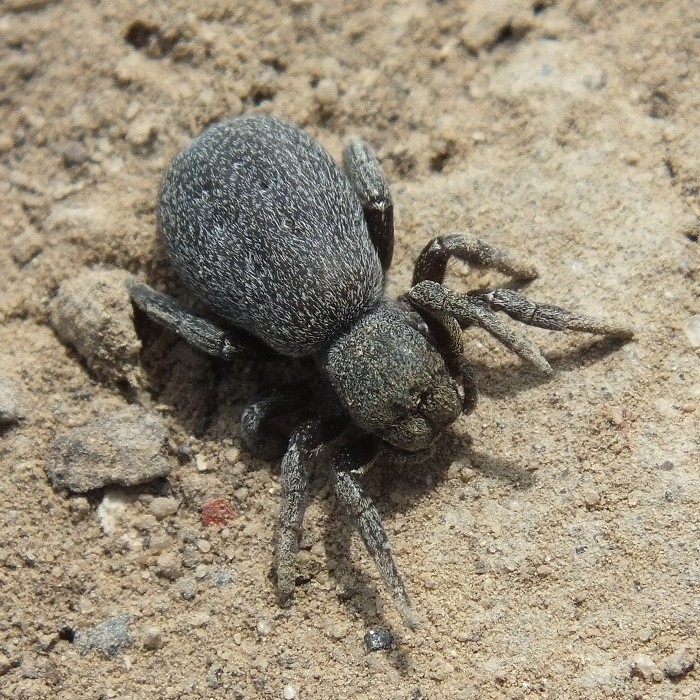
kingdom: Animalia
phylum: Arthropoda
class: Arachnida
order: Araneae
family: Eresidae
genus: Eresus
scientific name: Eresus kollari
